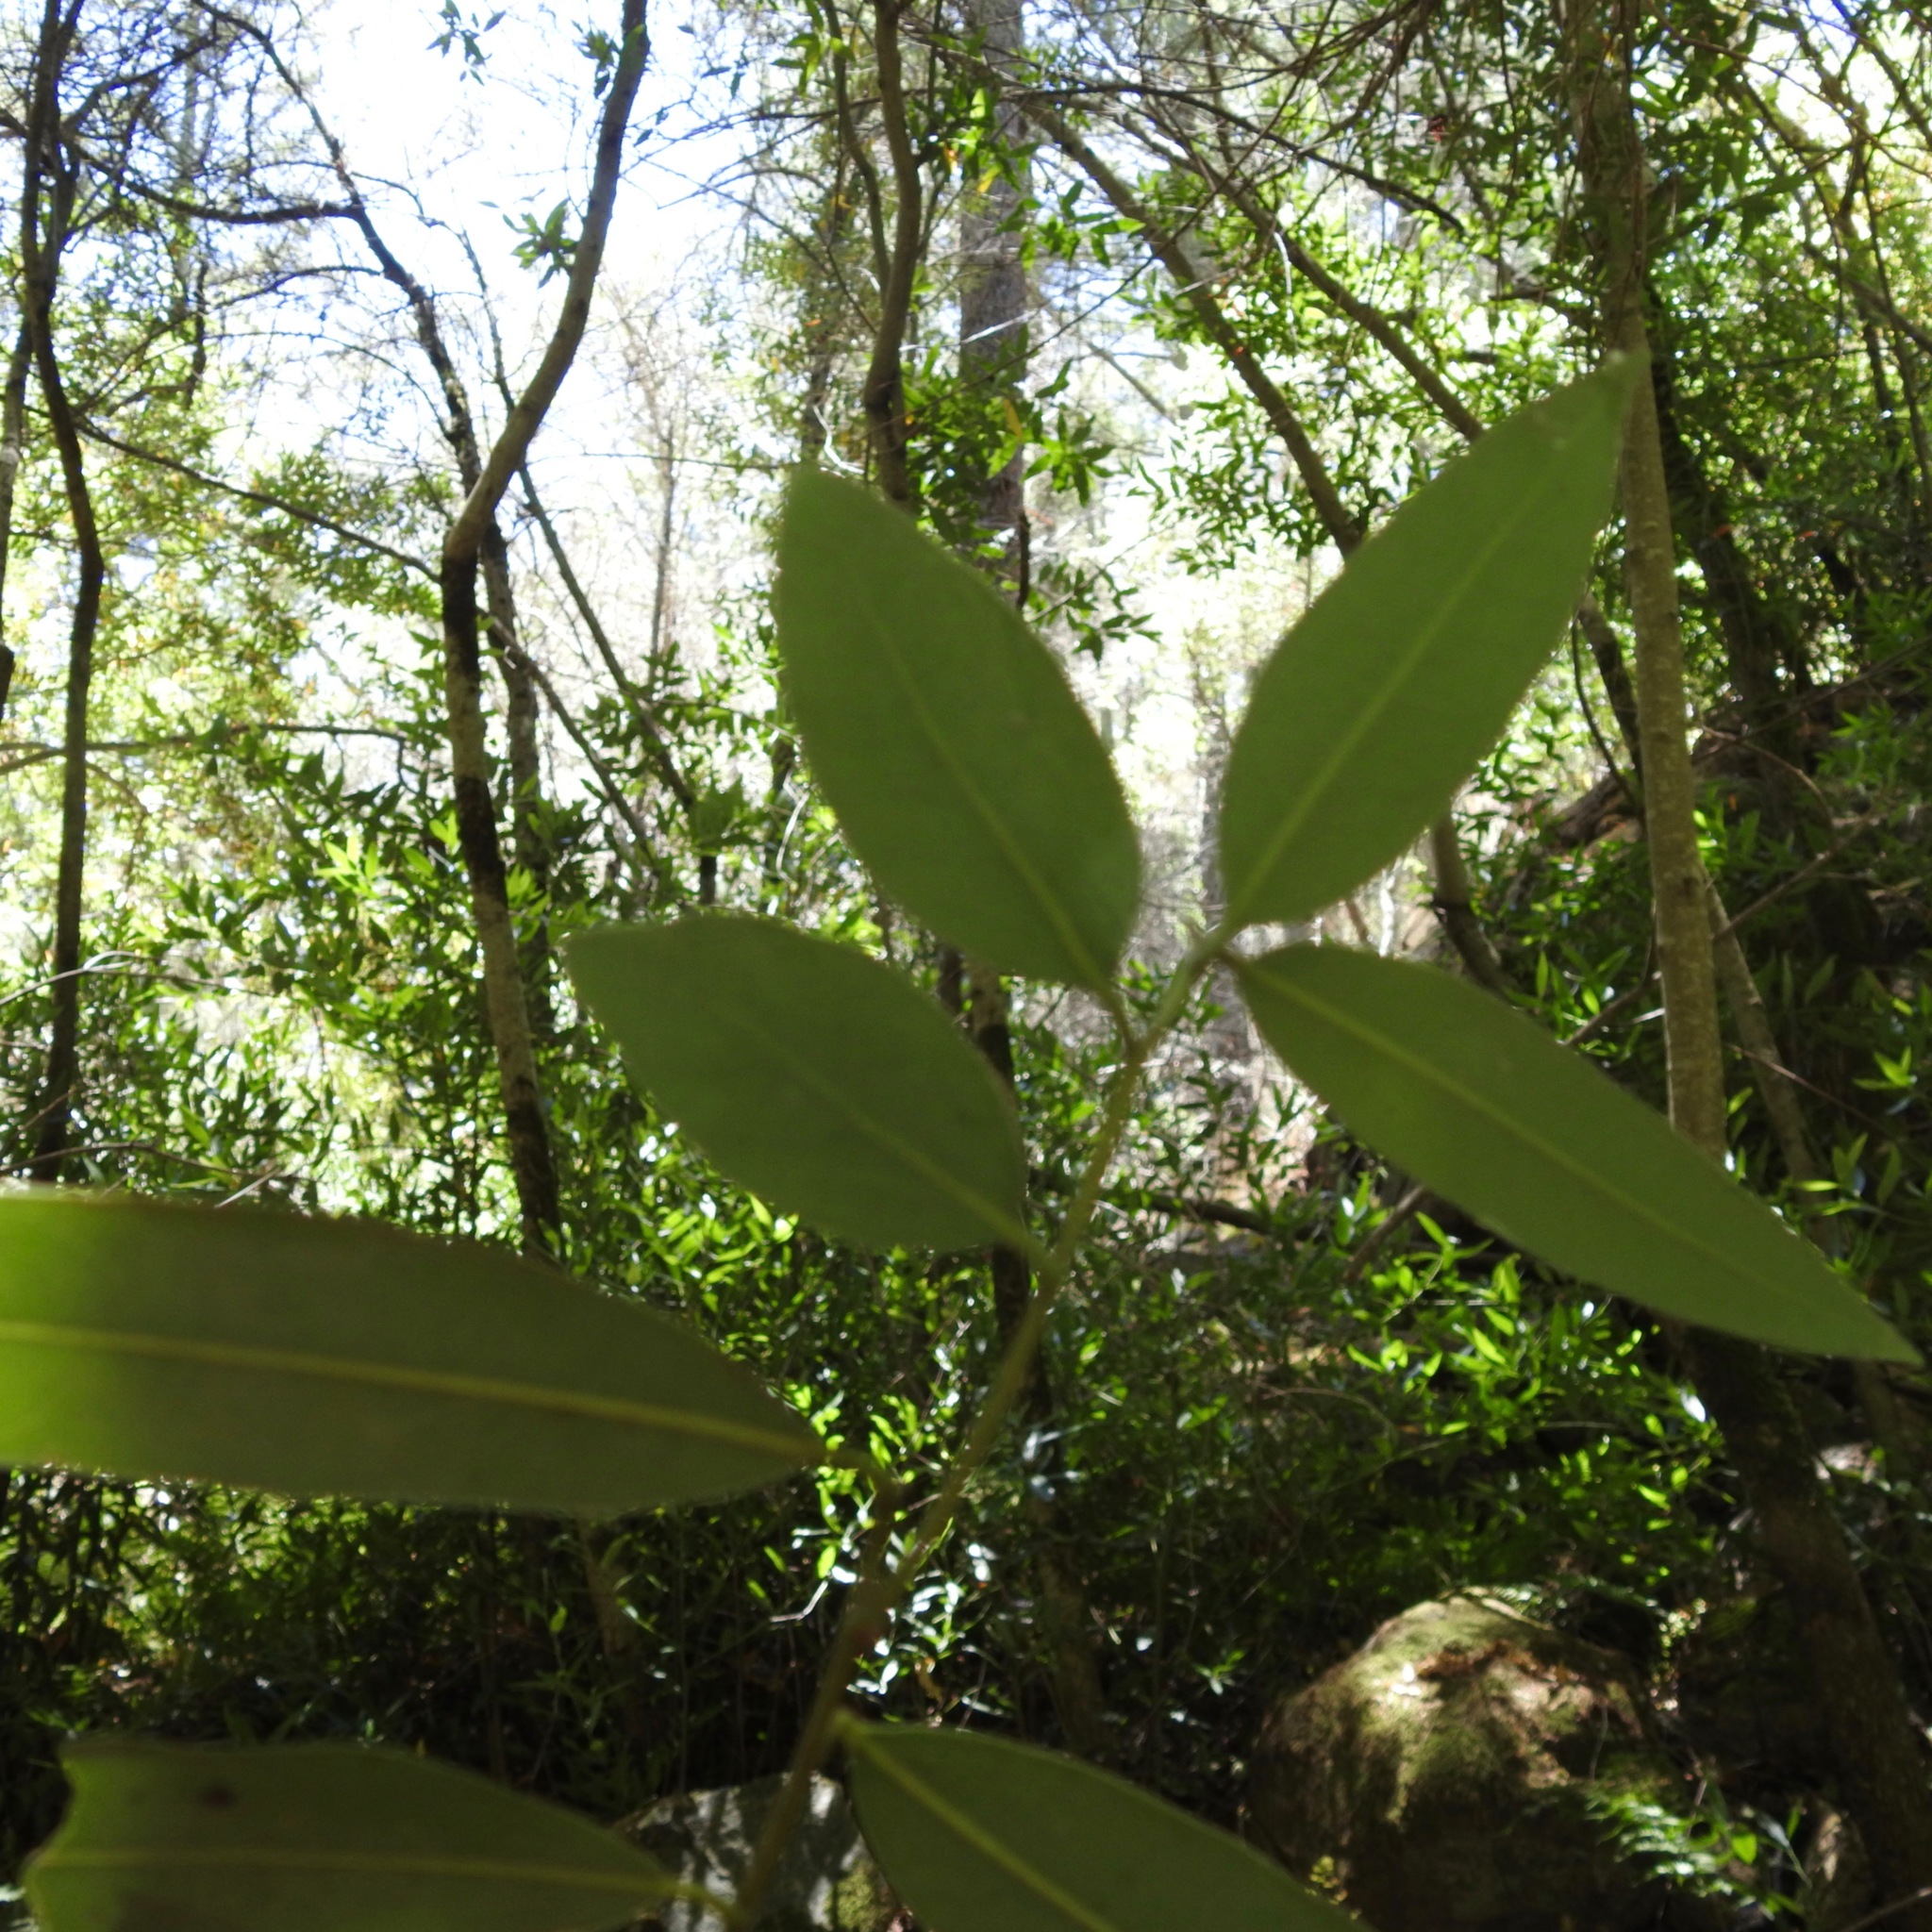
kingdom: Plantae
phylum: Tracheophyta
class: Magnoliopsida
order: Laurales
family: Lauraceae
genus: Umbellularia
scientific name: Umbellularia californica
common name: California bay
